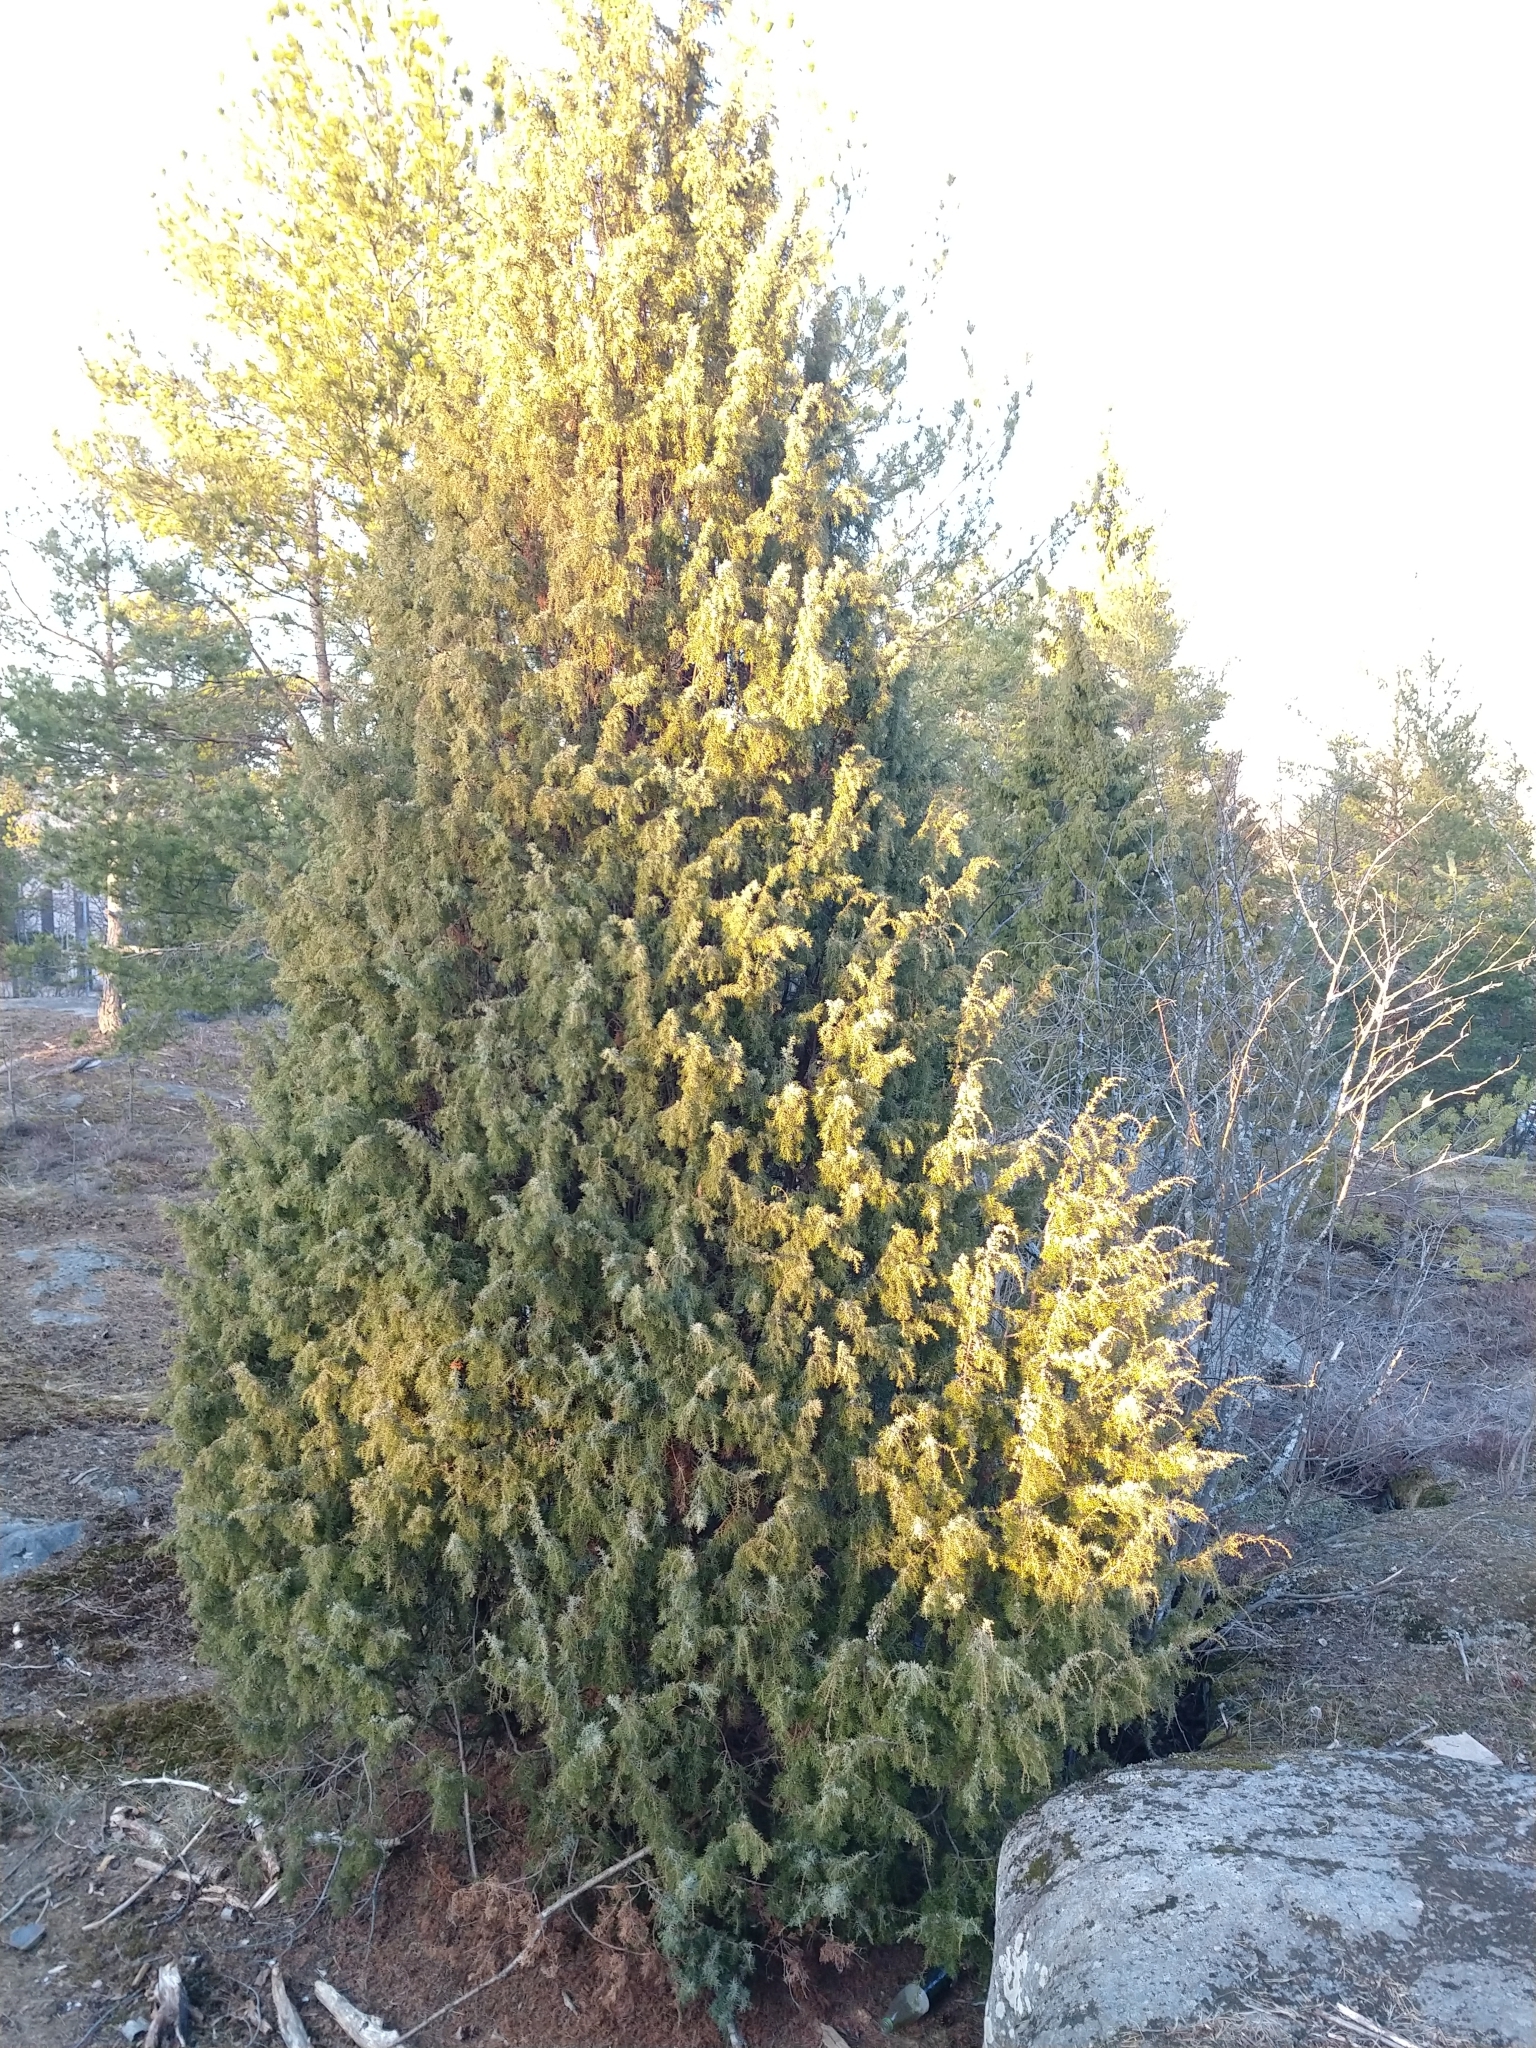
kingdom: Plantae
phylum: Tracheophyta
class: Pinopsida
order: Pinales
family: Cupressaceae
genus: Juniperus
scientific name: Juniperus communis
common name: Common juniper
